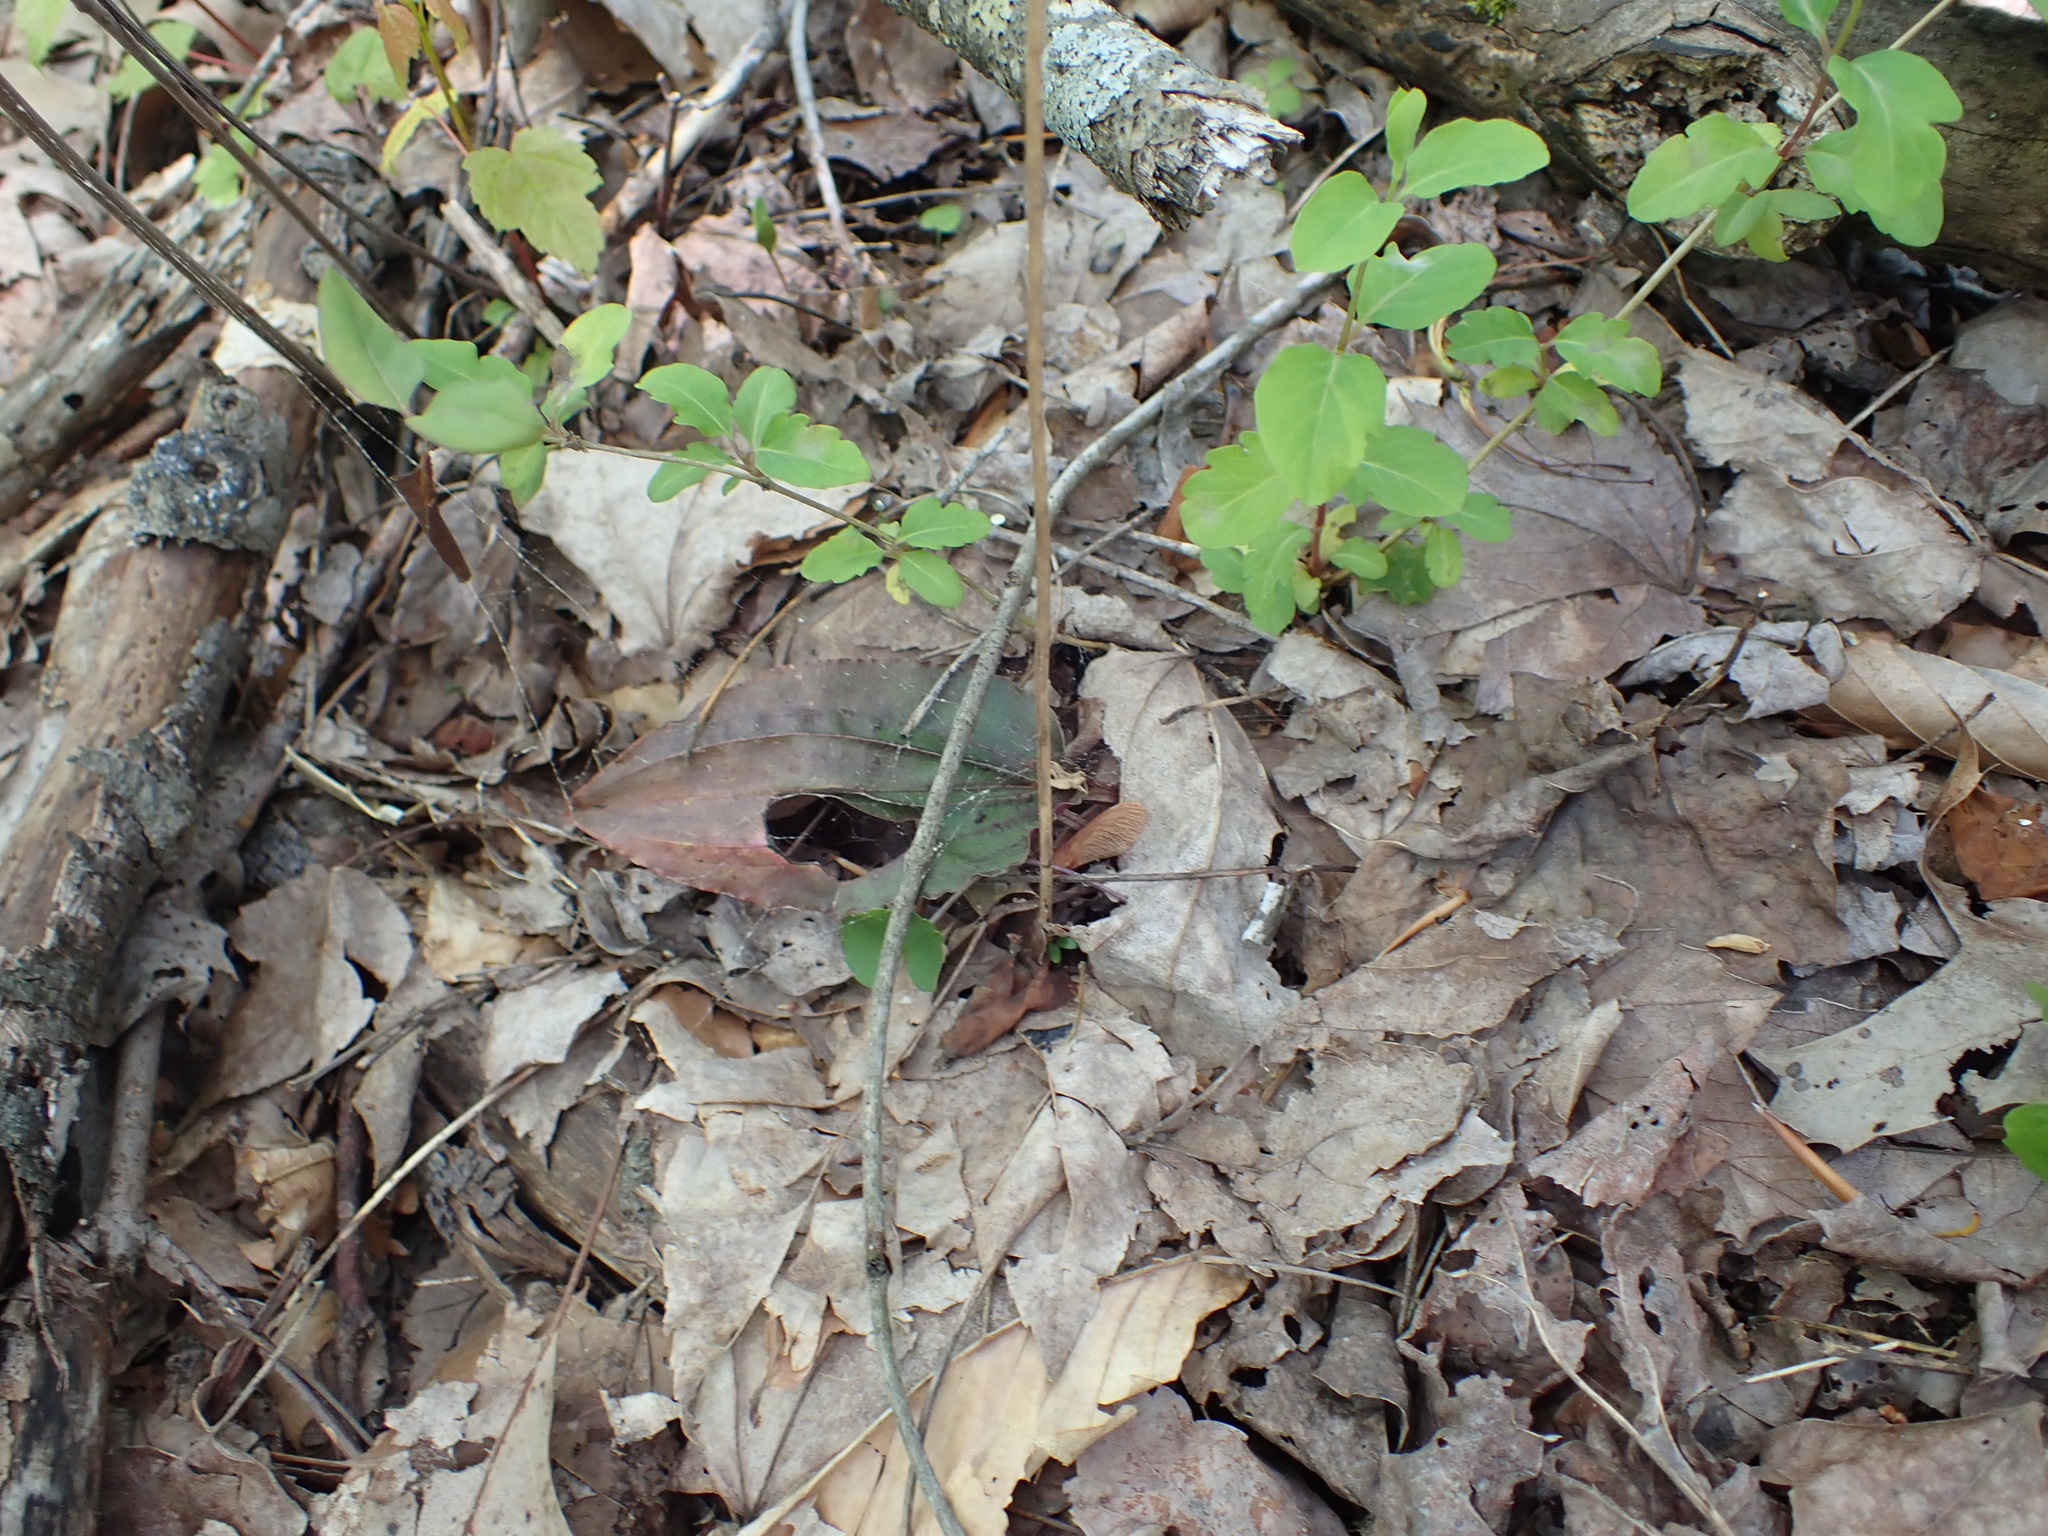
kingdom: Plantae
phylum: Tracheophyta
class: Liliopsida
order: Asparagales
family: Orchidaceae
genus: Tipularia
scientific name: Tipularia discolor
